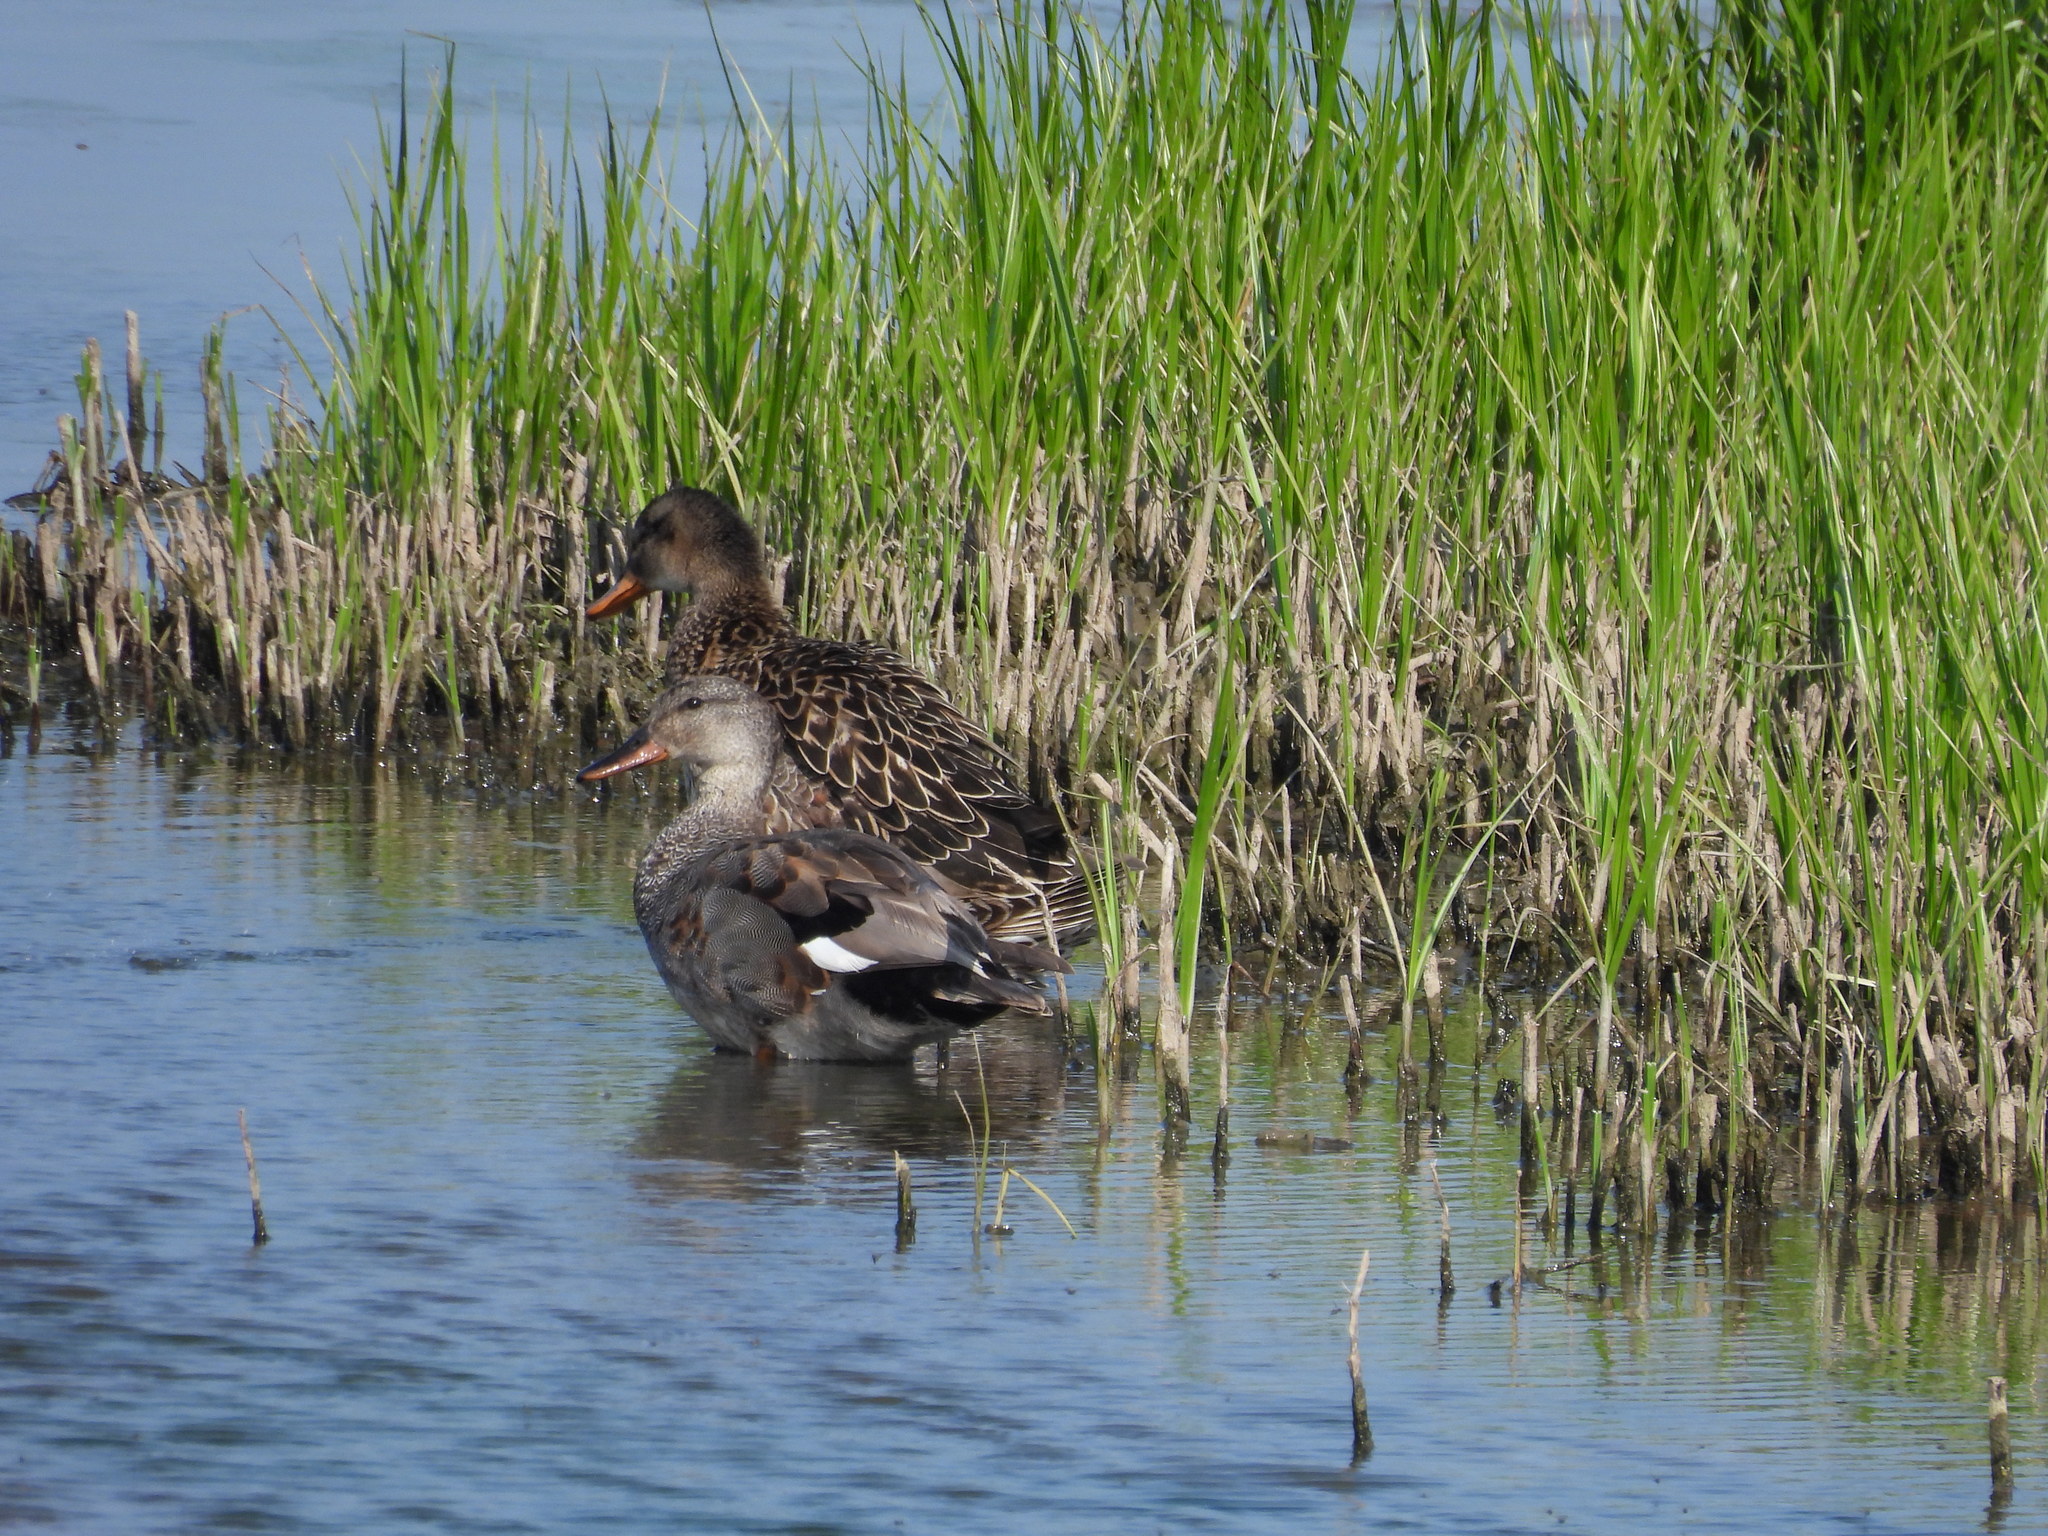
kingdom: Animalia
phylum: Chordata
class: Aves
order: Anseriformes
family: Anatidae
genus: Mareca
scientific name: Mareca strepera
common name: Gadwall
